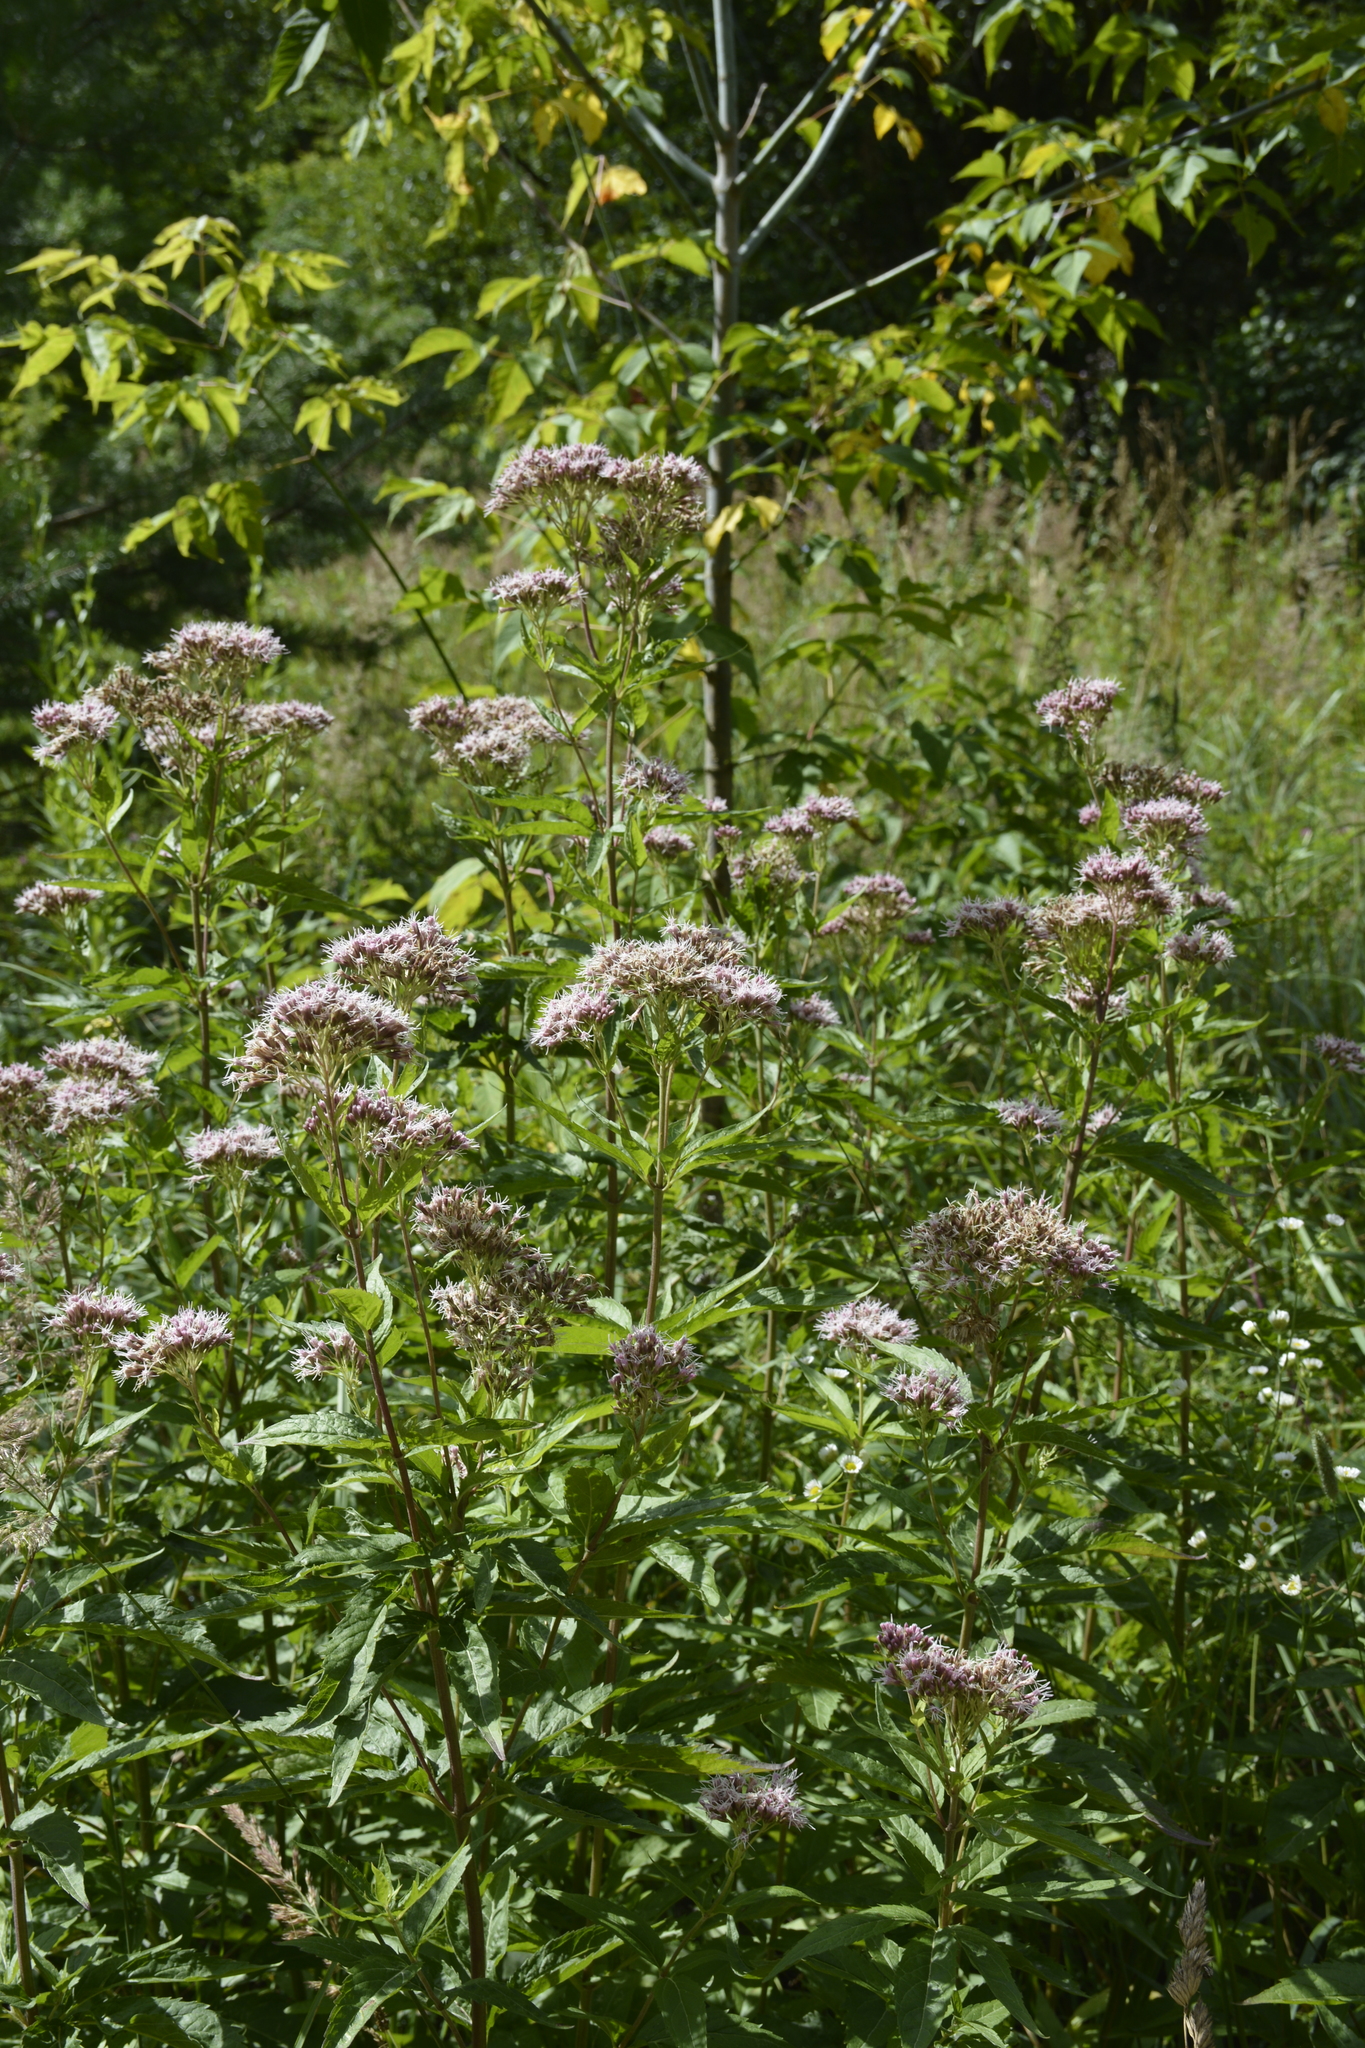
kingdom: Plantae
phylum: Tracheophyta
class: Magnoliopsida
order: Asterales
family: Asteraceae
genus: Eupatorium
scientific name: Eupatorium cannabinum
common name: Hemp-agrimony
